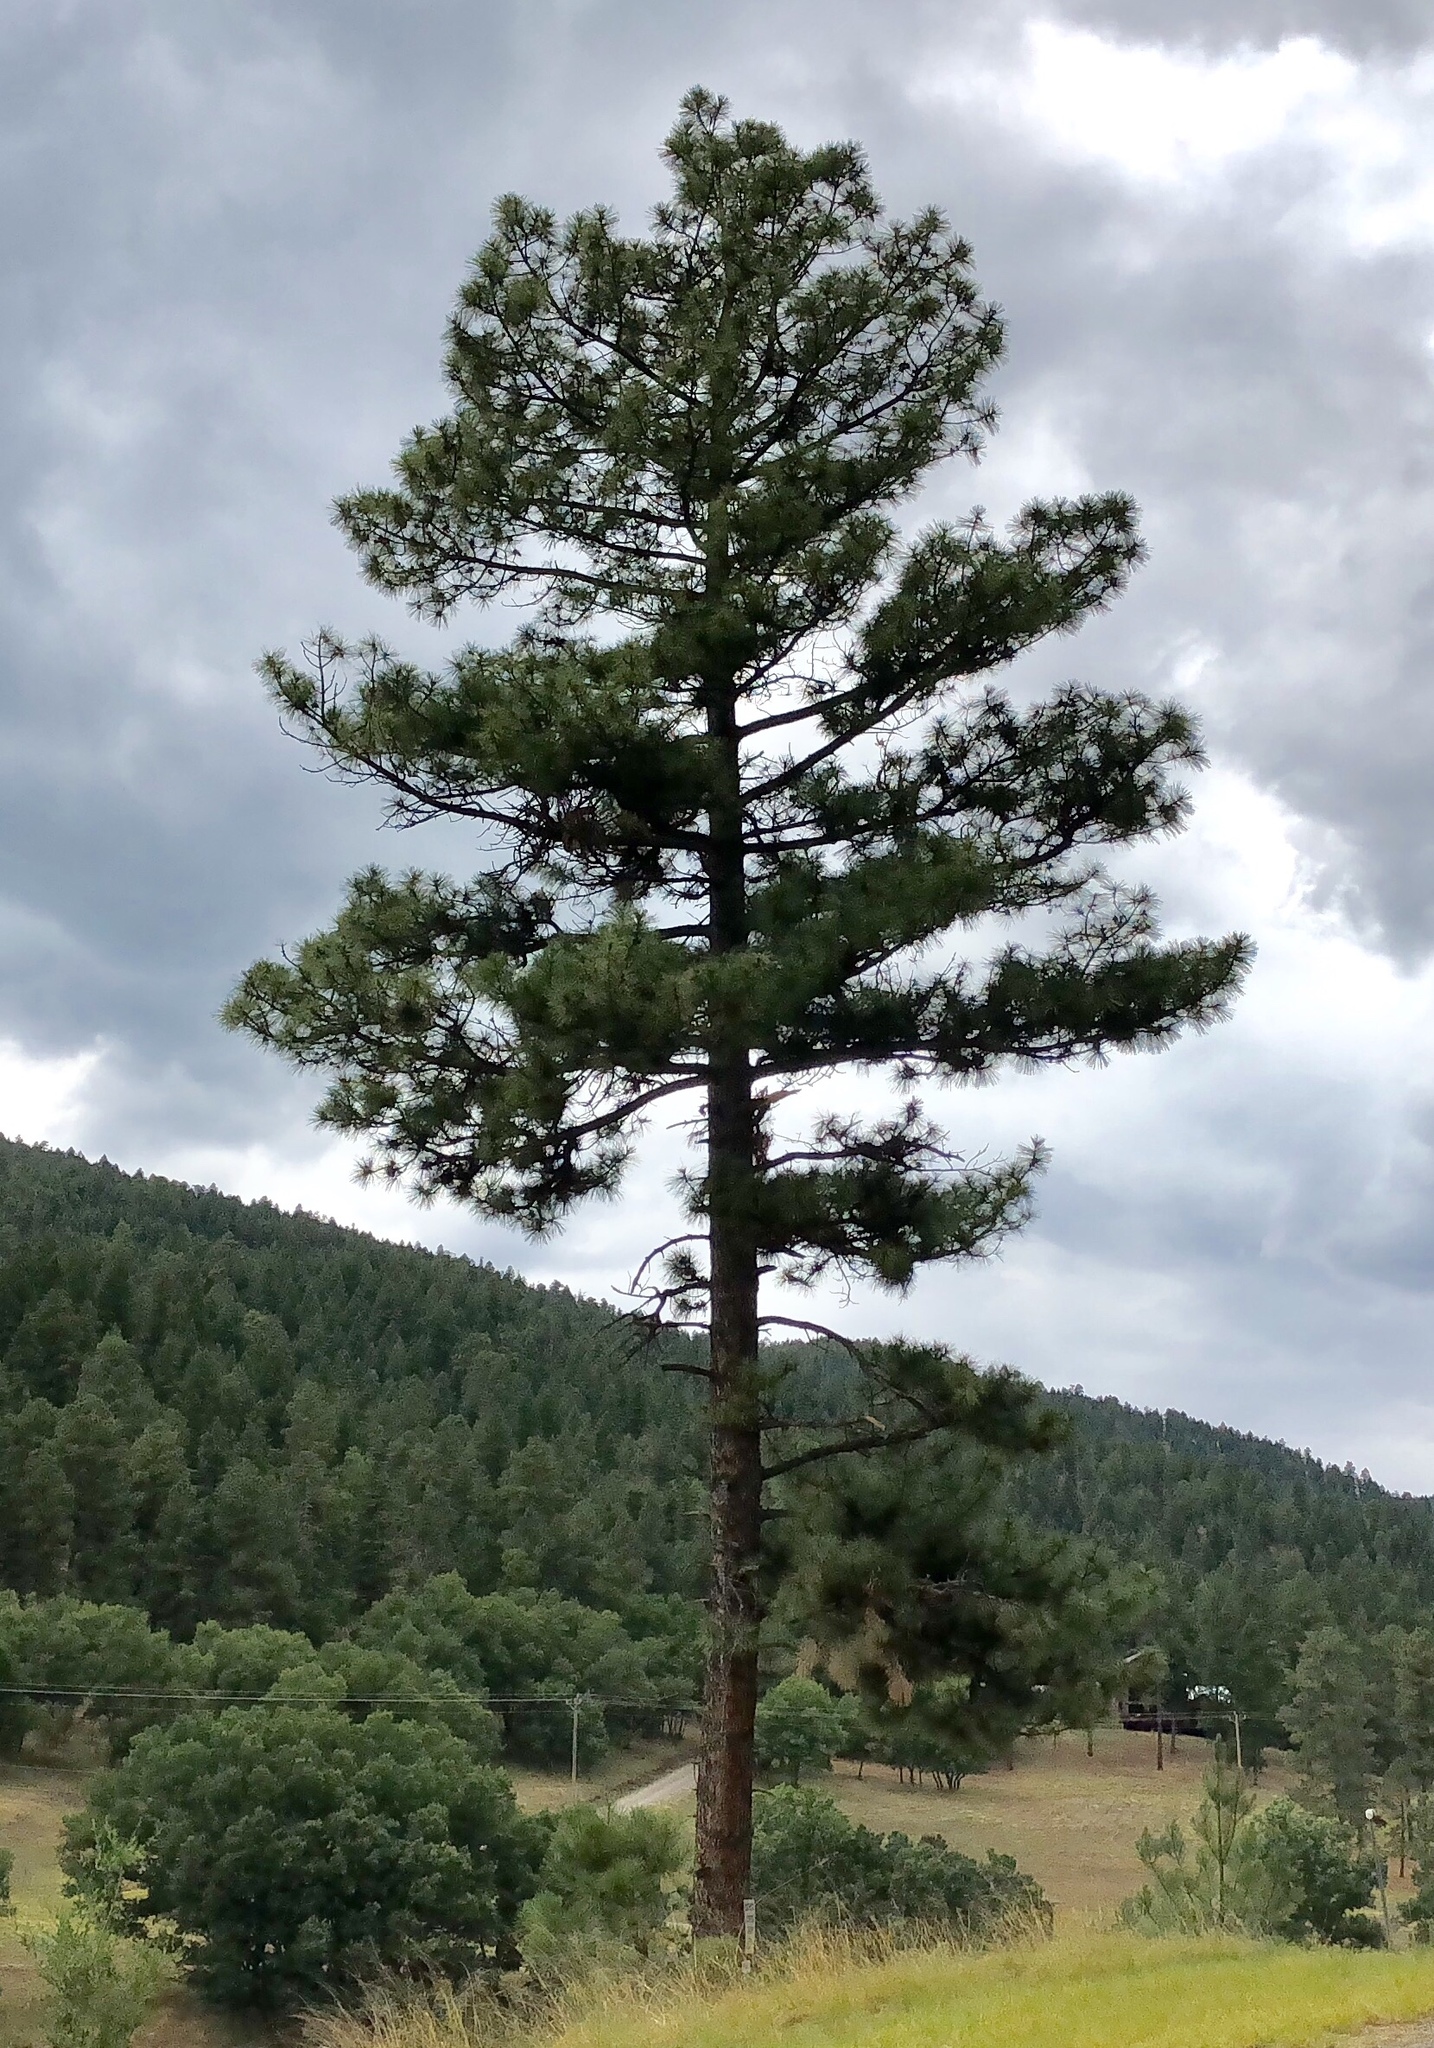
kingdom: Plantae
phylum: Tracheophyta
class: Pinopsida
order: Pinales
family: Pinaceae
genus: Pinus
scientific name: Pinus ponderosa
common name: Western yellow-pine
